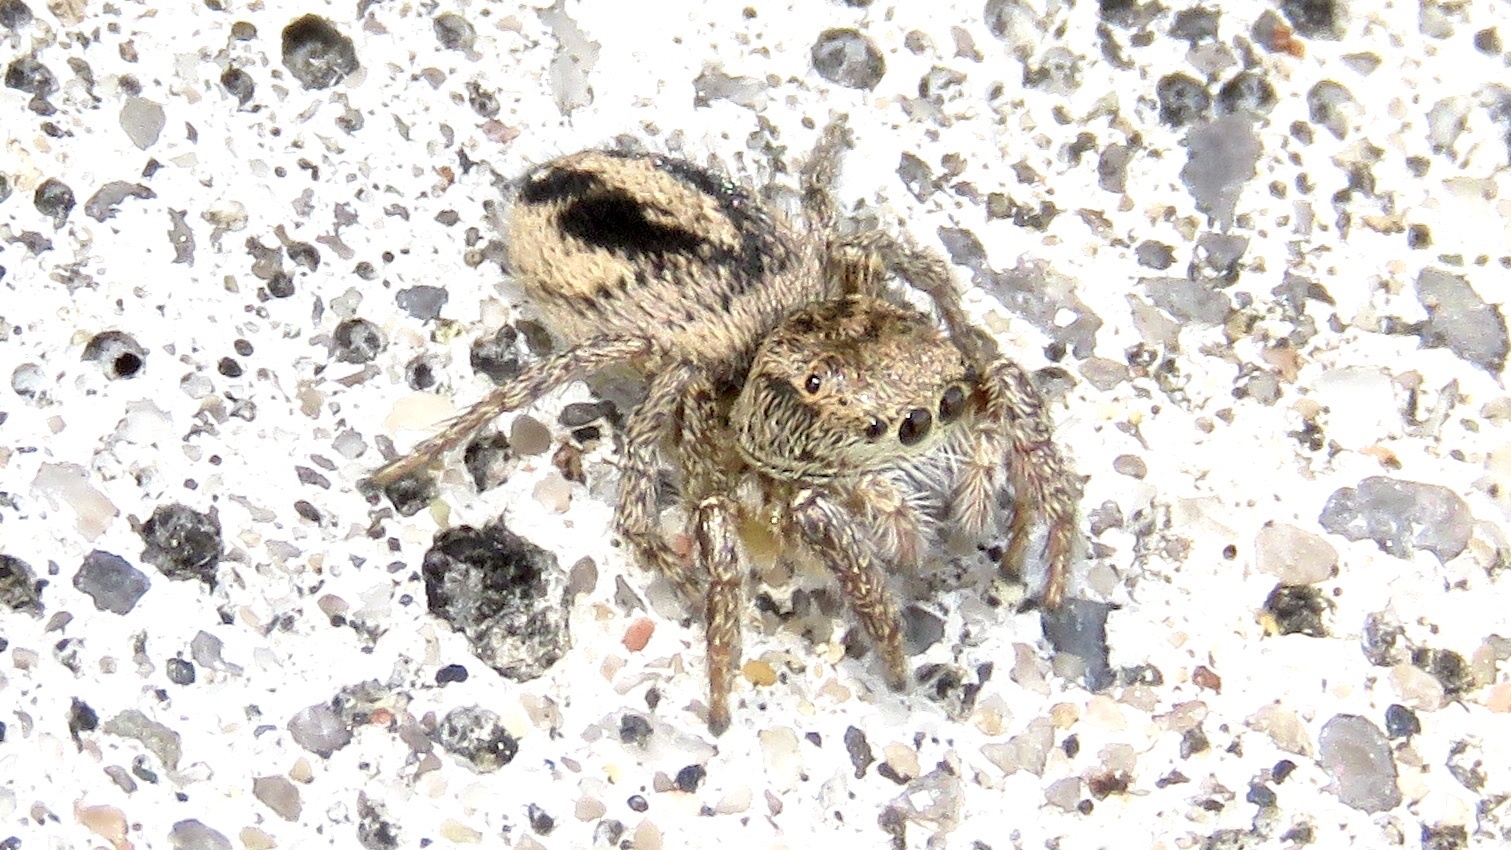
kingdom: Animalia
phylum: Arthropoda
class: Arachnida
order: Araneae
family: Salticidae
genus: Habronattus
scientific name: Habronattus decorus
